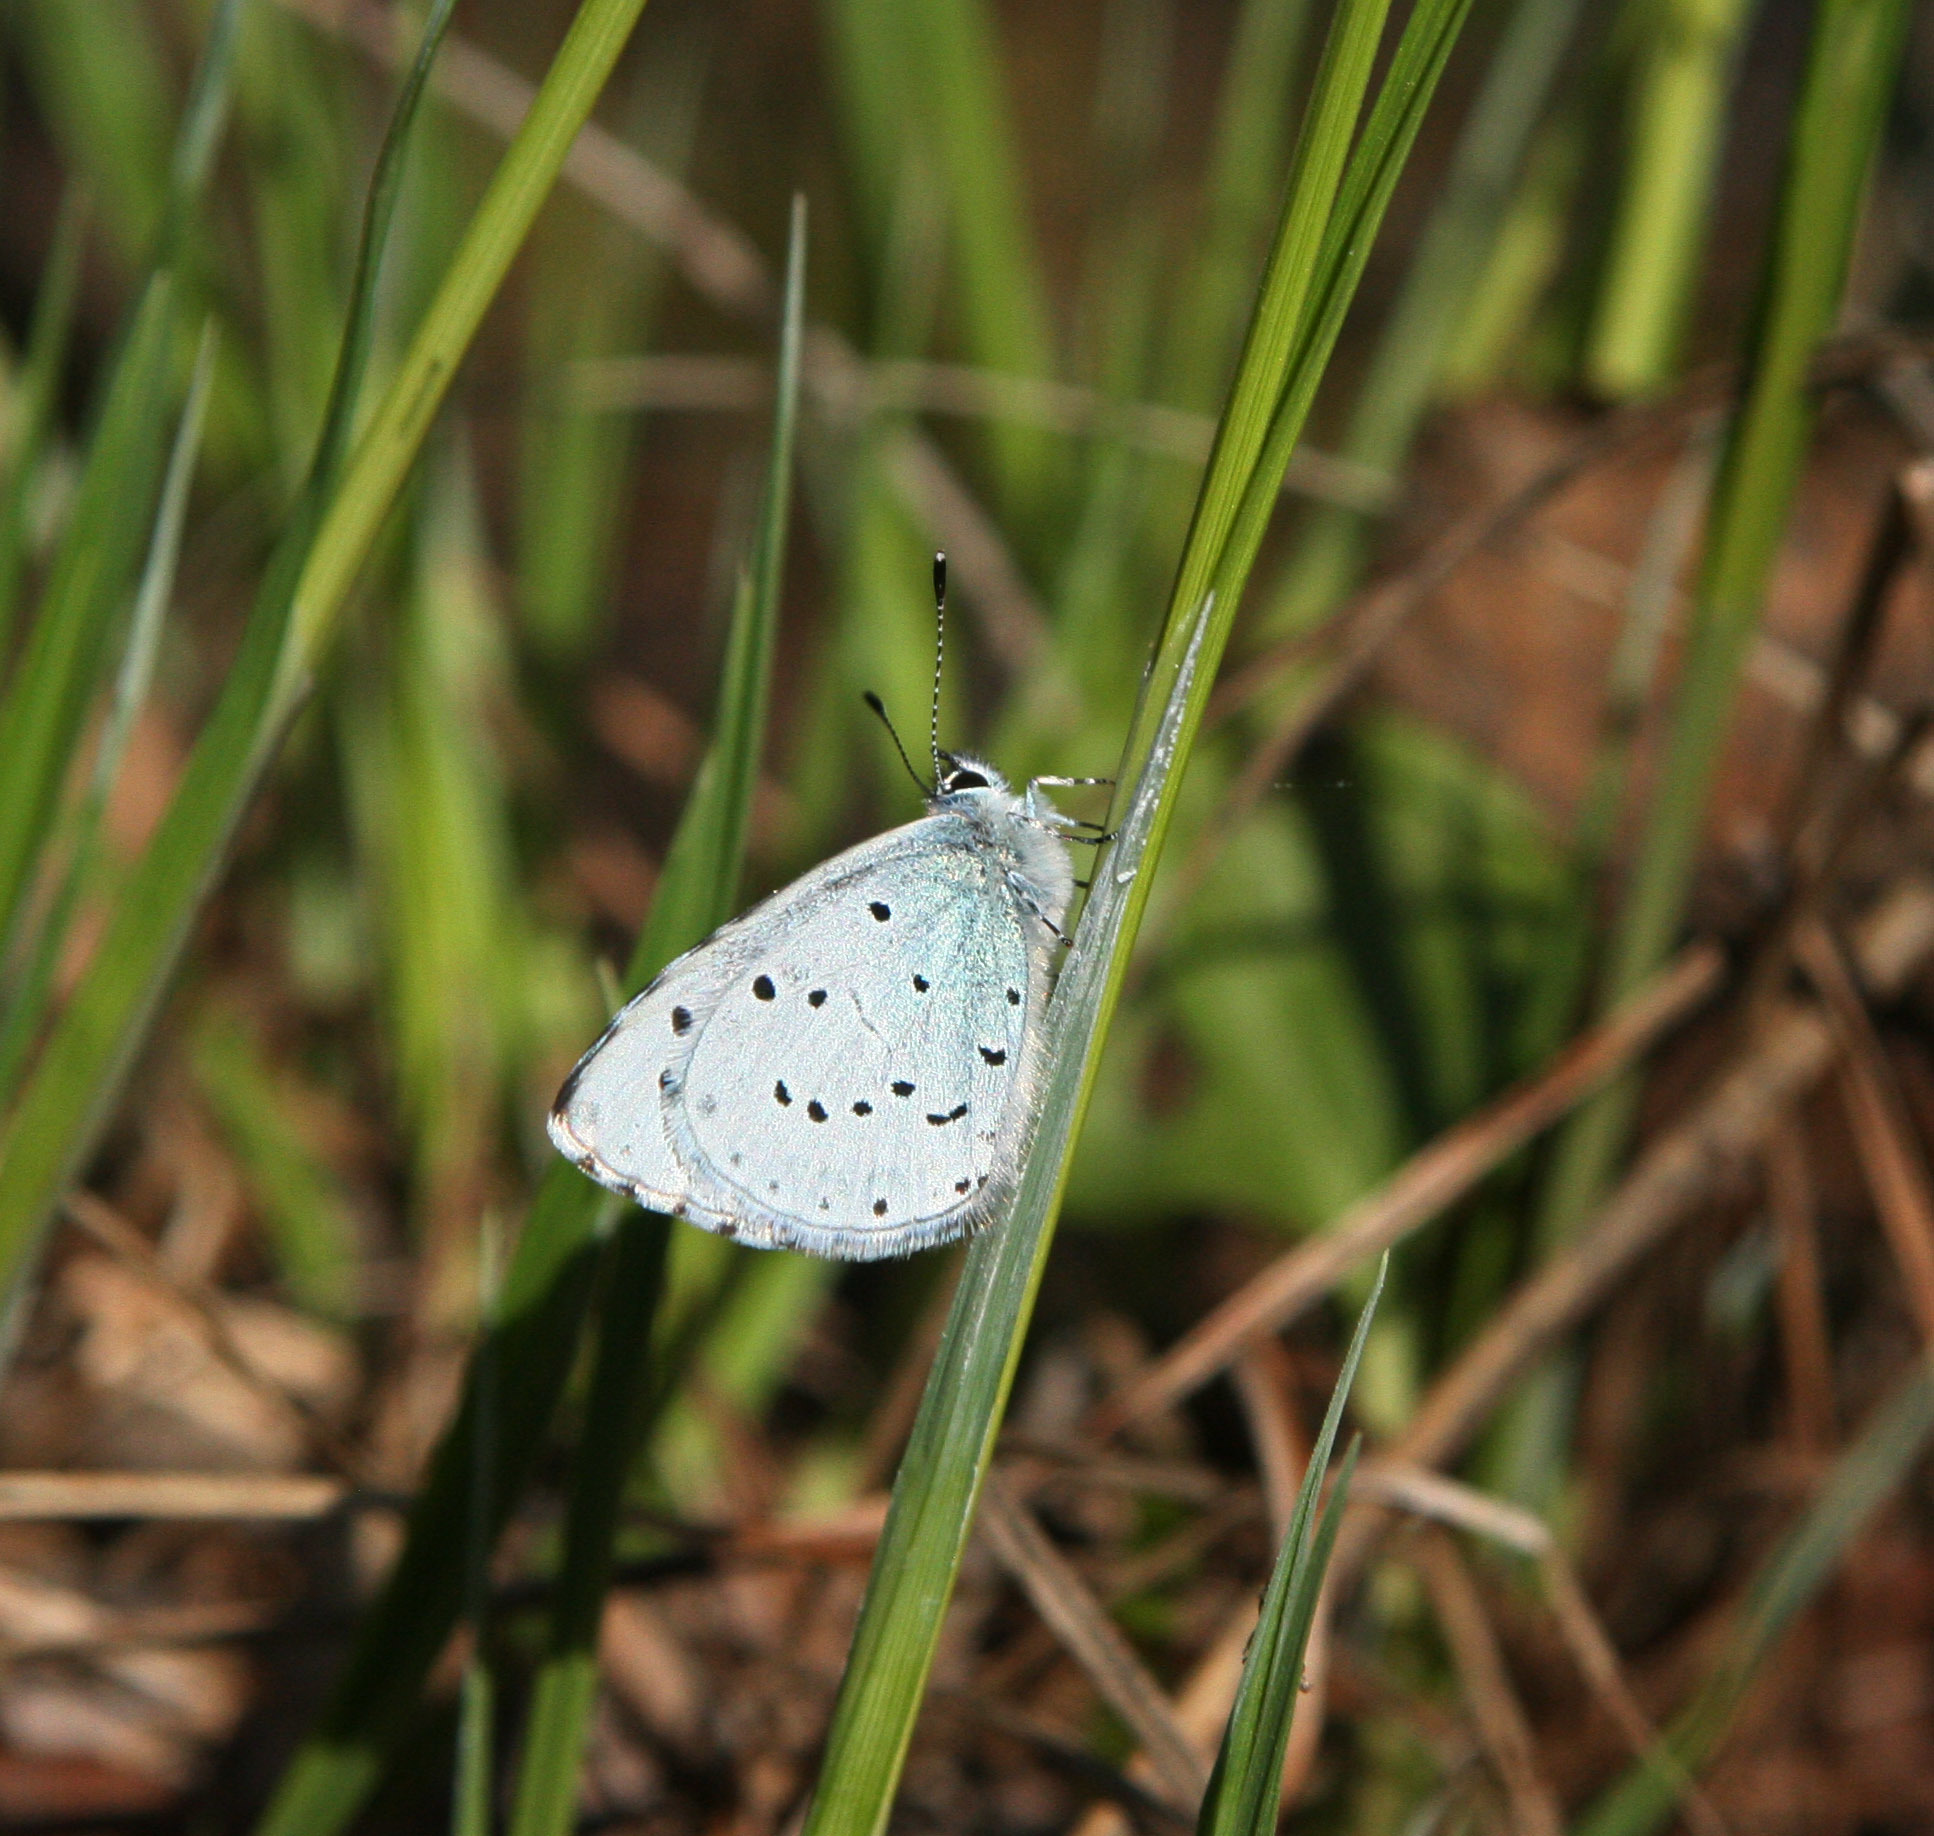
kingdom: Animalia
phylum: Arthropoda
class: Insecta
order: Lepidoptera
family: Lycaenidae
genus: Celastrina
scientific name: Celastrina argiolus
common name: Holly blue
